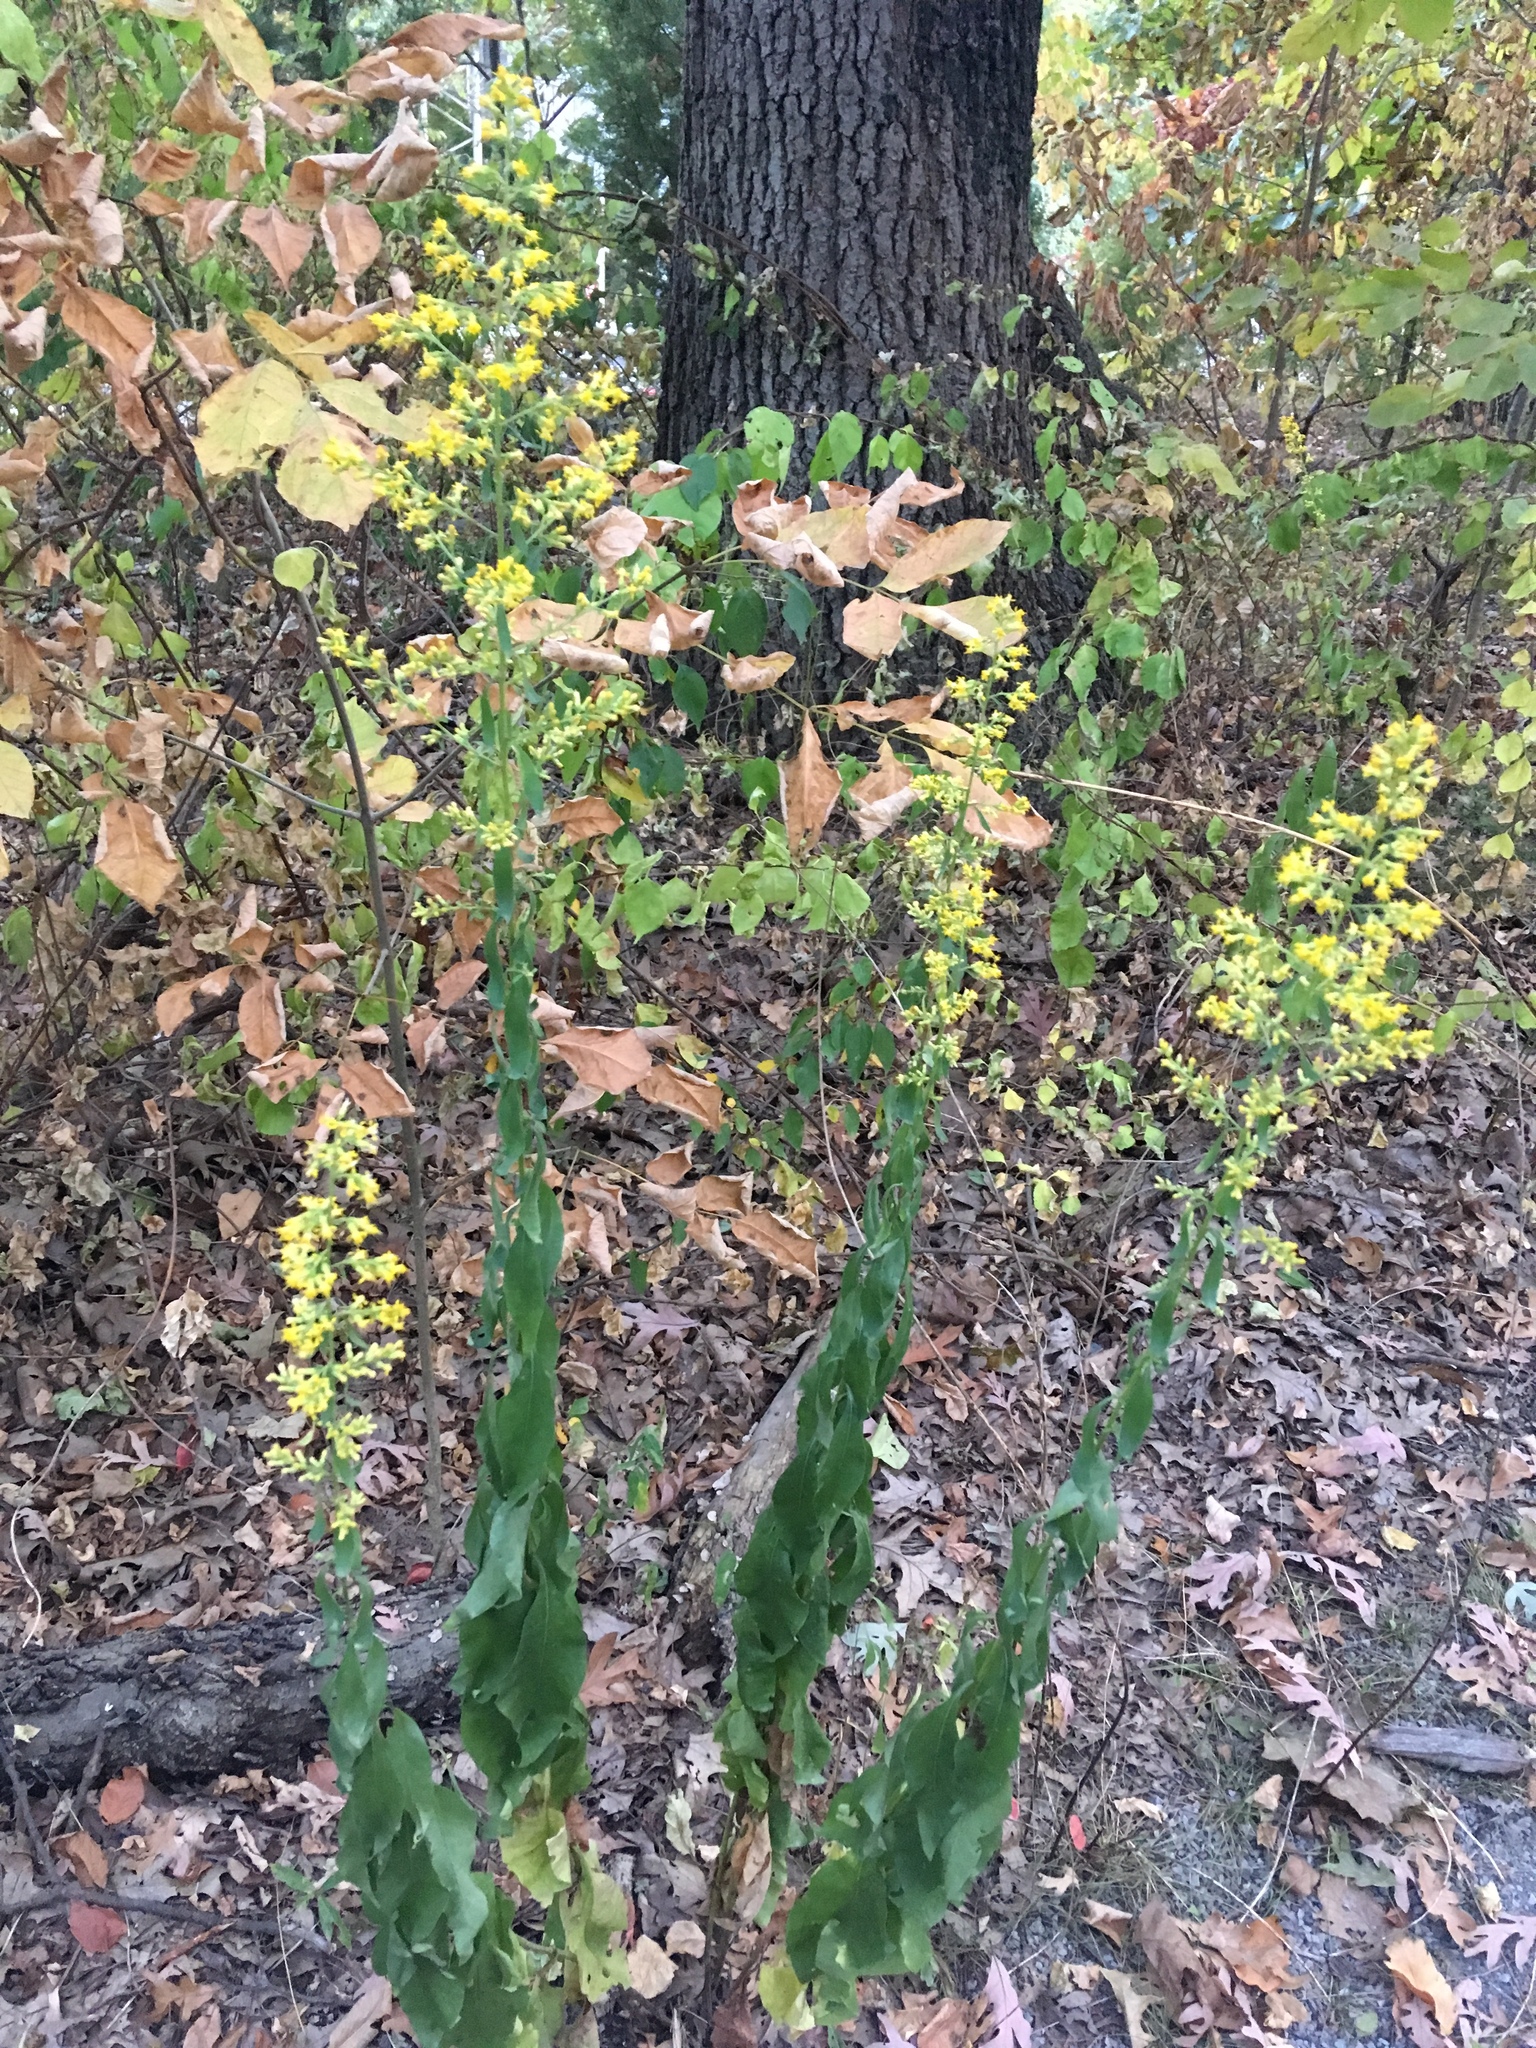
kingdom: Plantae
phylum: Tracheophyta
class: Magnoliopsida
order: Asterales
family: Asteraceae
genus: Solidago
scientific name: Solidago speciosa
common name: Showy goldenrod
